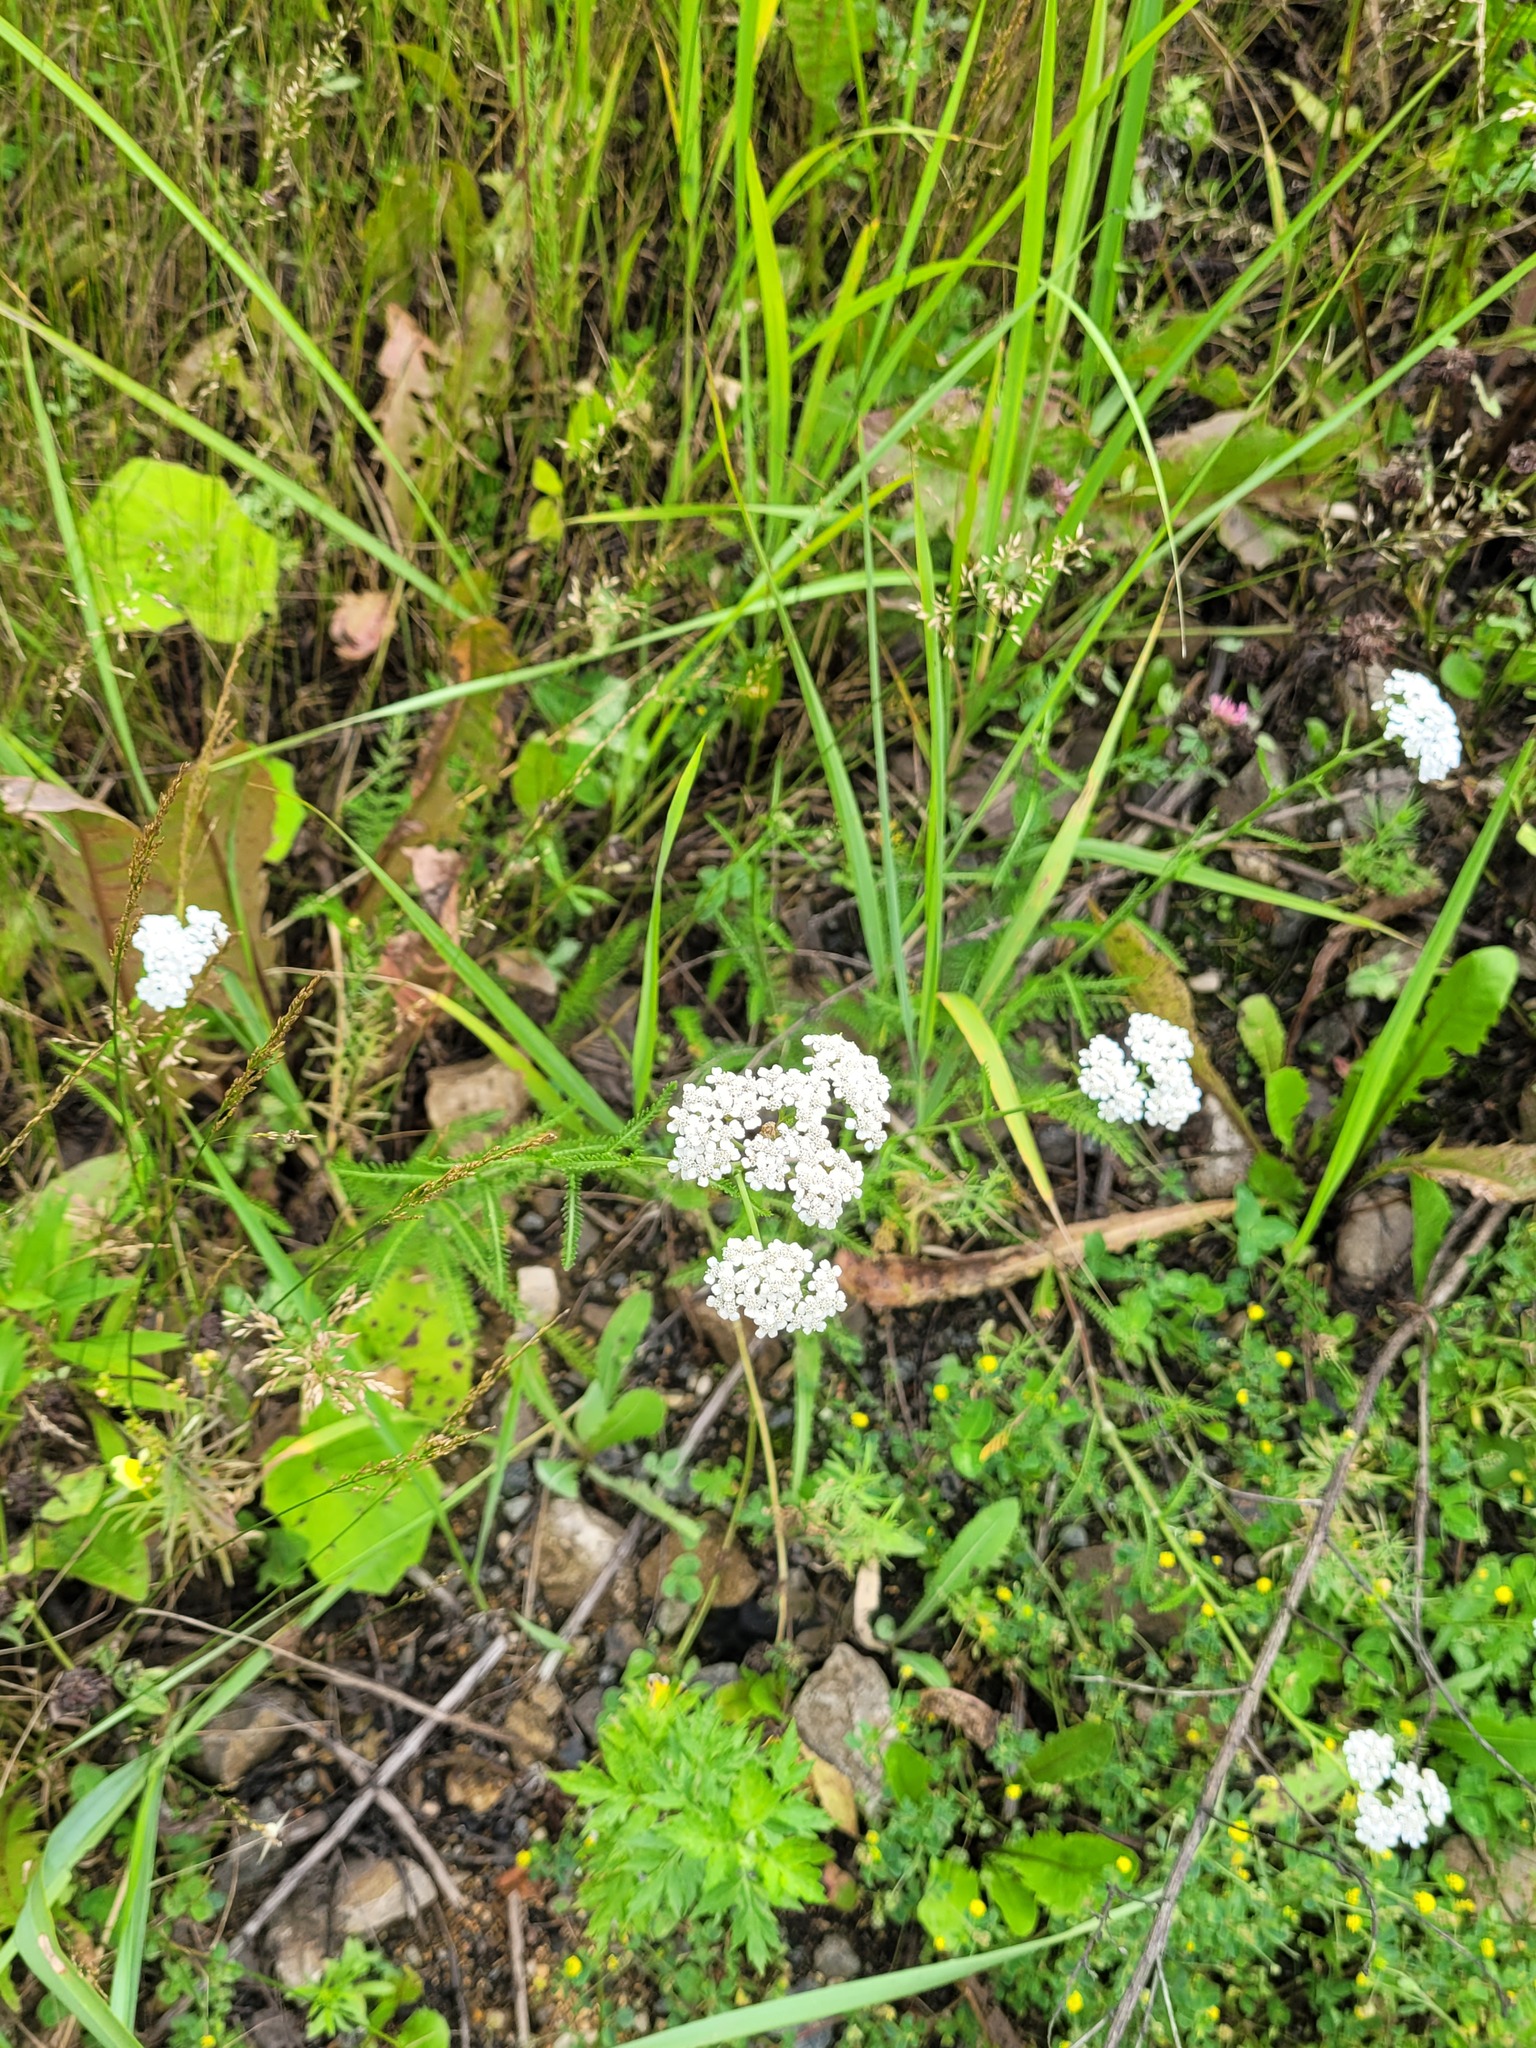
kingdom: Plantae
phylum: Tracheophyta
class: Magnoliopsida
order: Asterales
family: Asteraceae
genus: Achillea
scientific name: Achillea millefolium
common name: Yarrow
